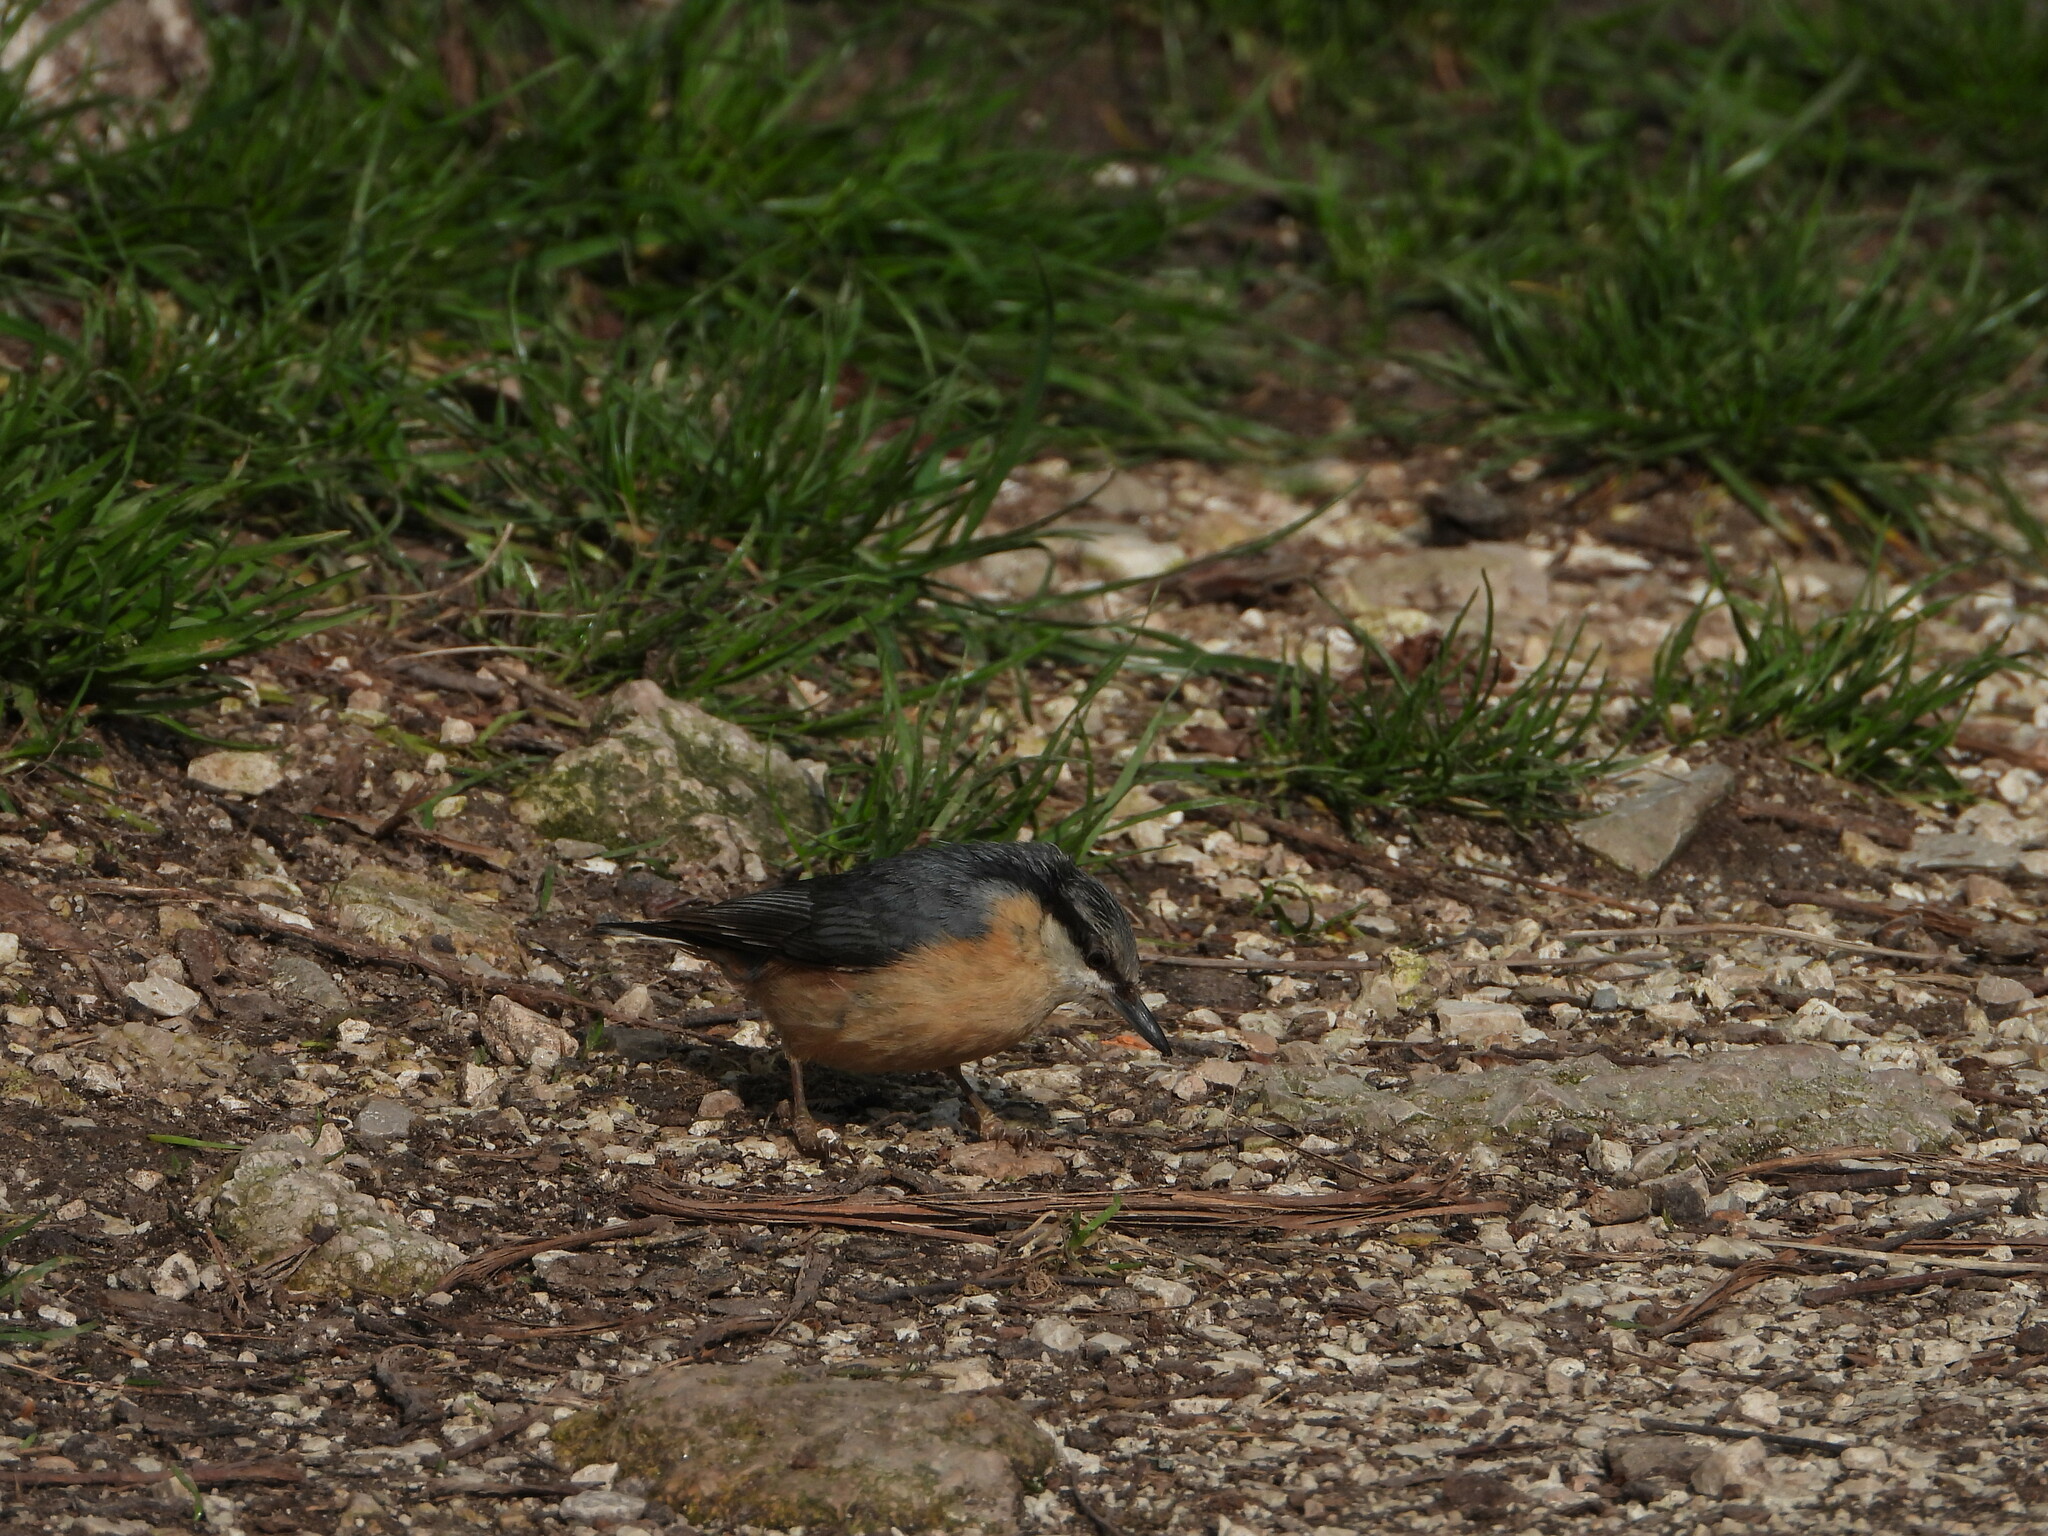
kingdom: Animalia
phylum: Chordata
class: Aves
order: Passeriformes
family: Sittidae
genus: Sitta
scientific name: Sitta europaea
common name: Eurasian nuthatch
